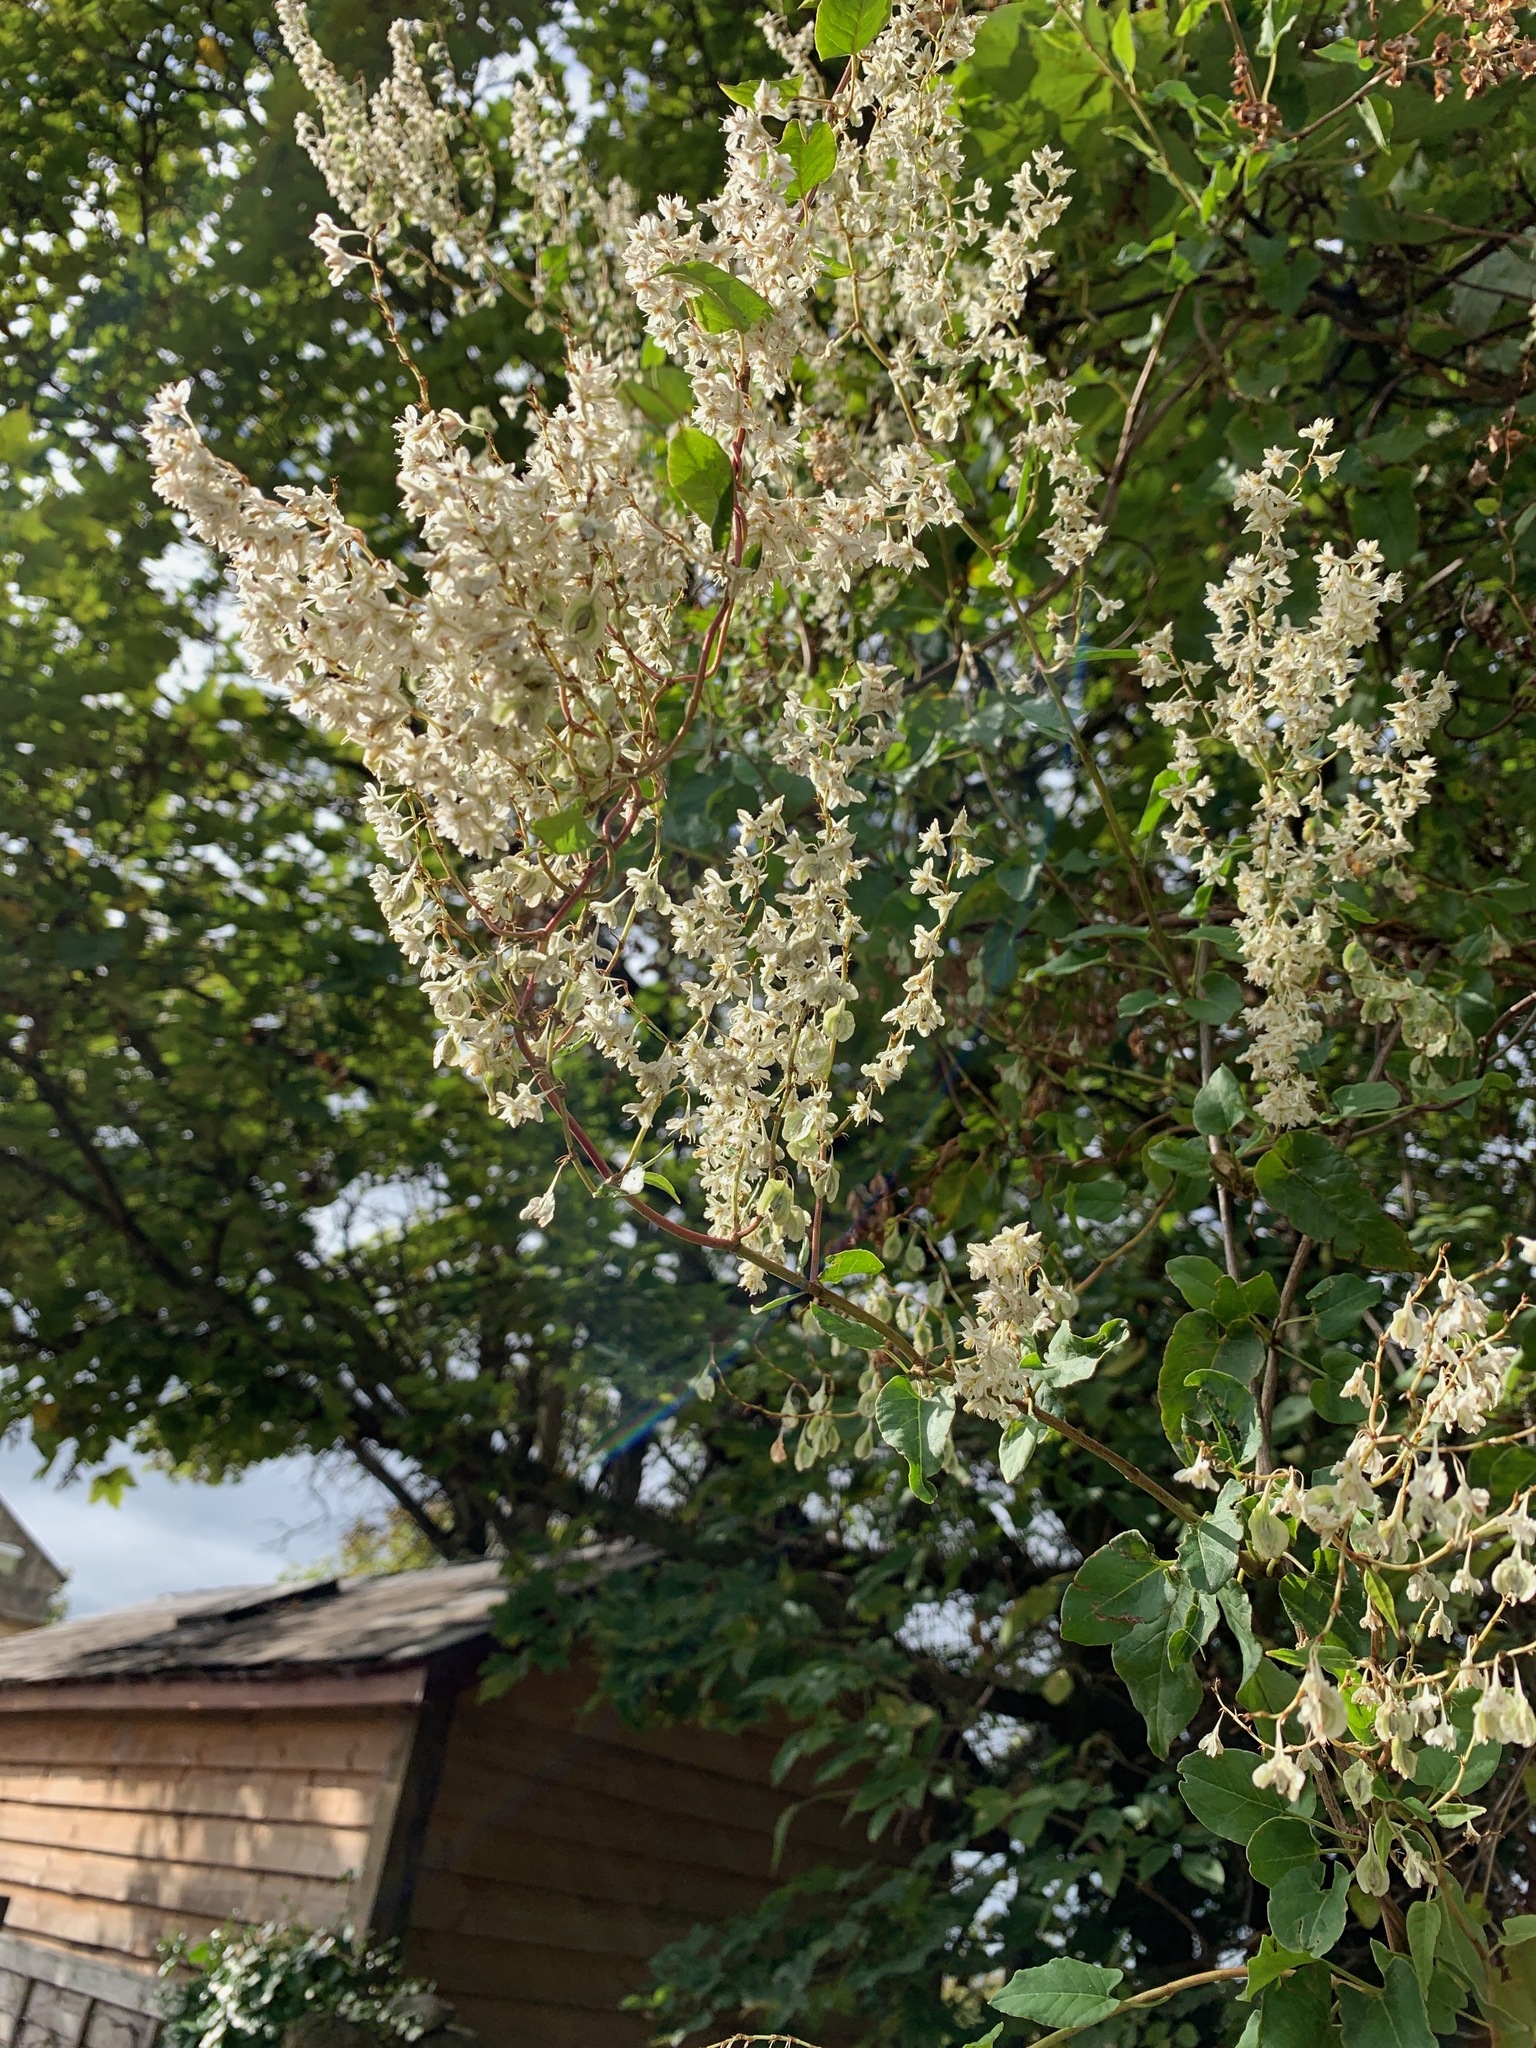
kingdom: Plantae
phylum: Tracheophyta
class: Magnoliopsida
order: Caryophyllales
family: Polygonaceae
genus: Fallopia
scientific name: Fallopia baldschuanica
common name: Russian-vine
